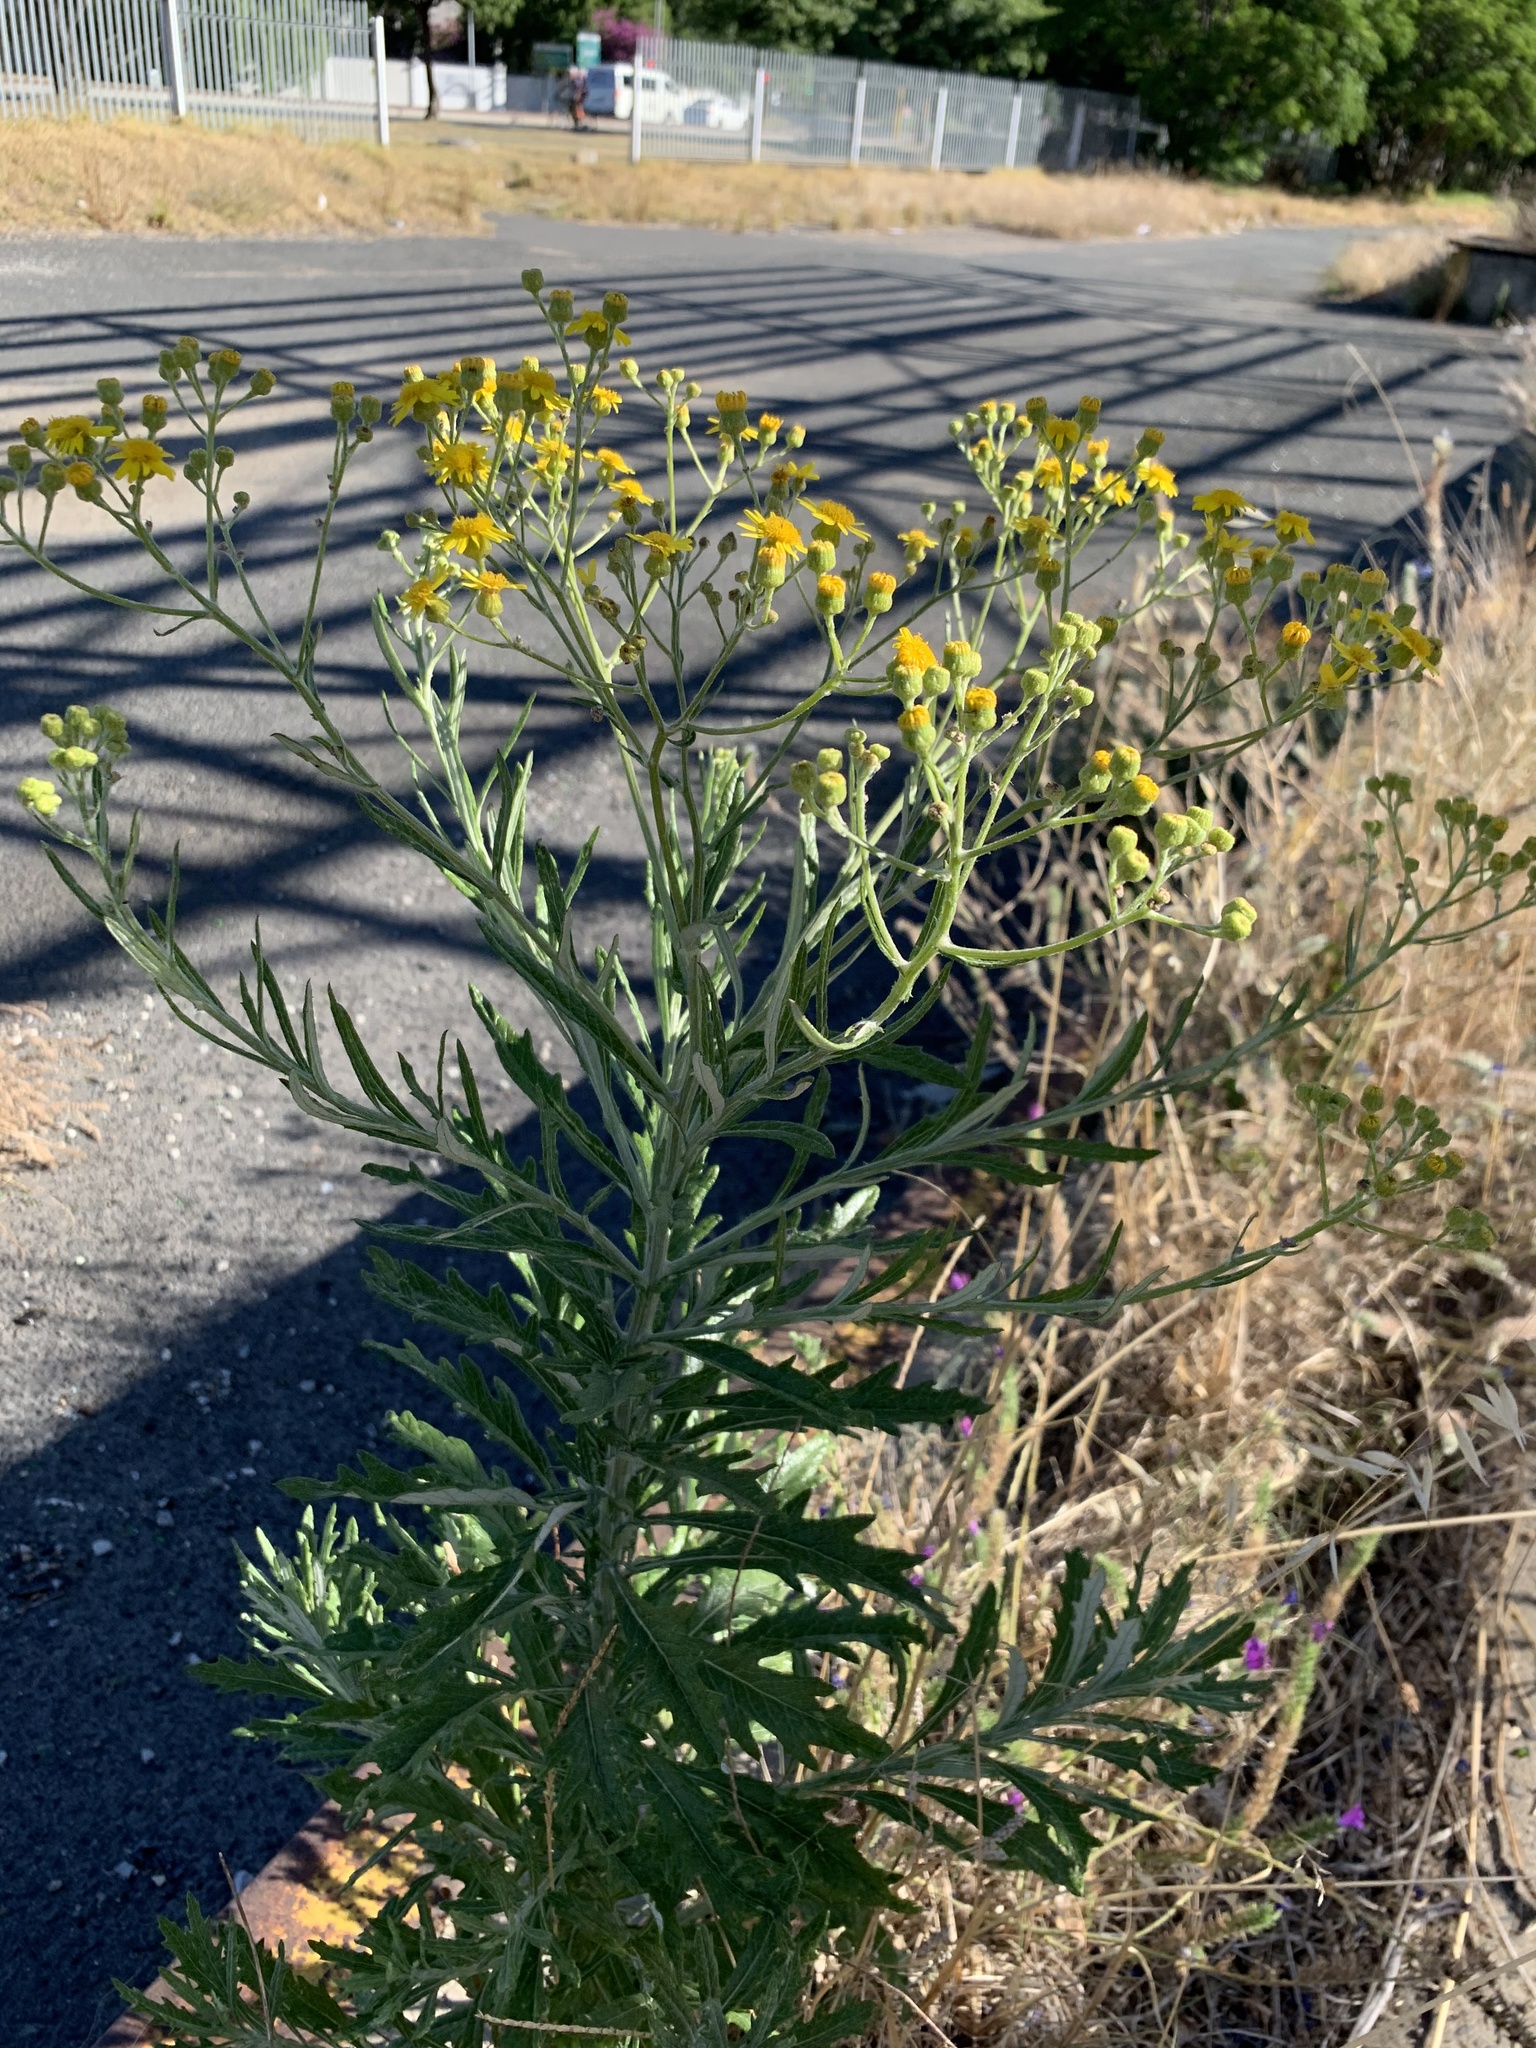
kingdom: Plantae
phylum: Tracheophyta
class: Magnoliopsida
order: Asterales
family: Asteraceae
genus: Senecio
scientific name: Senecio pterophorus
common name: Shoddy ragwort
